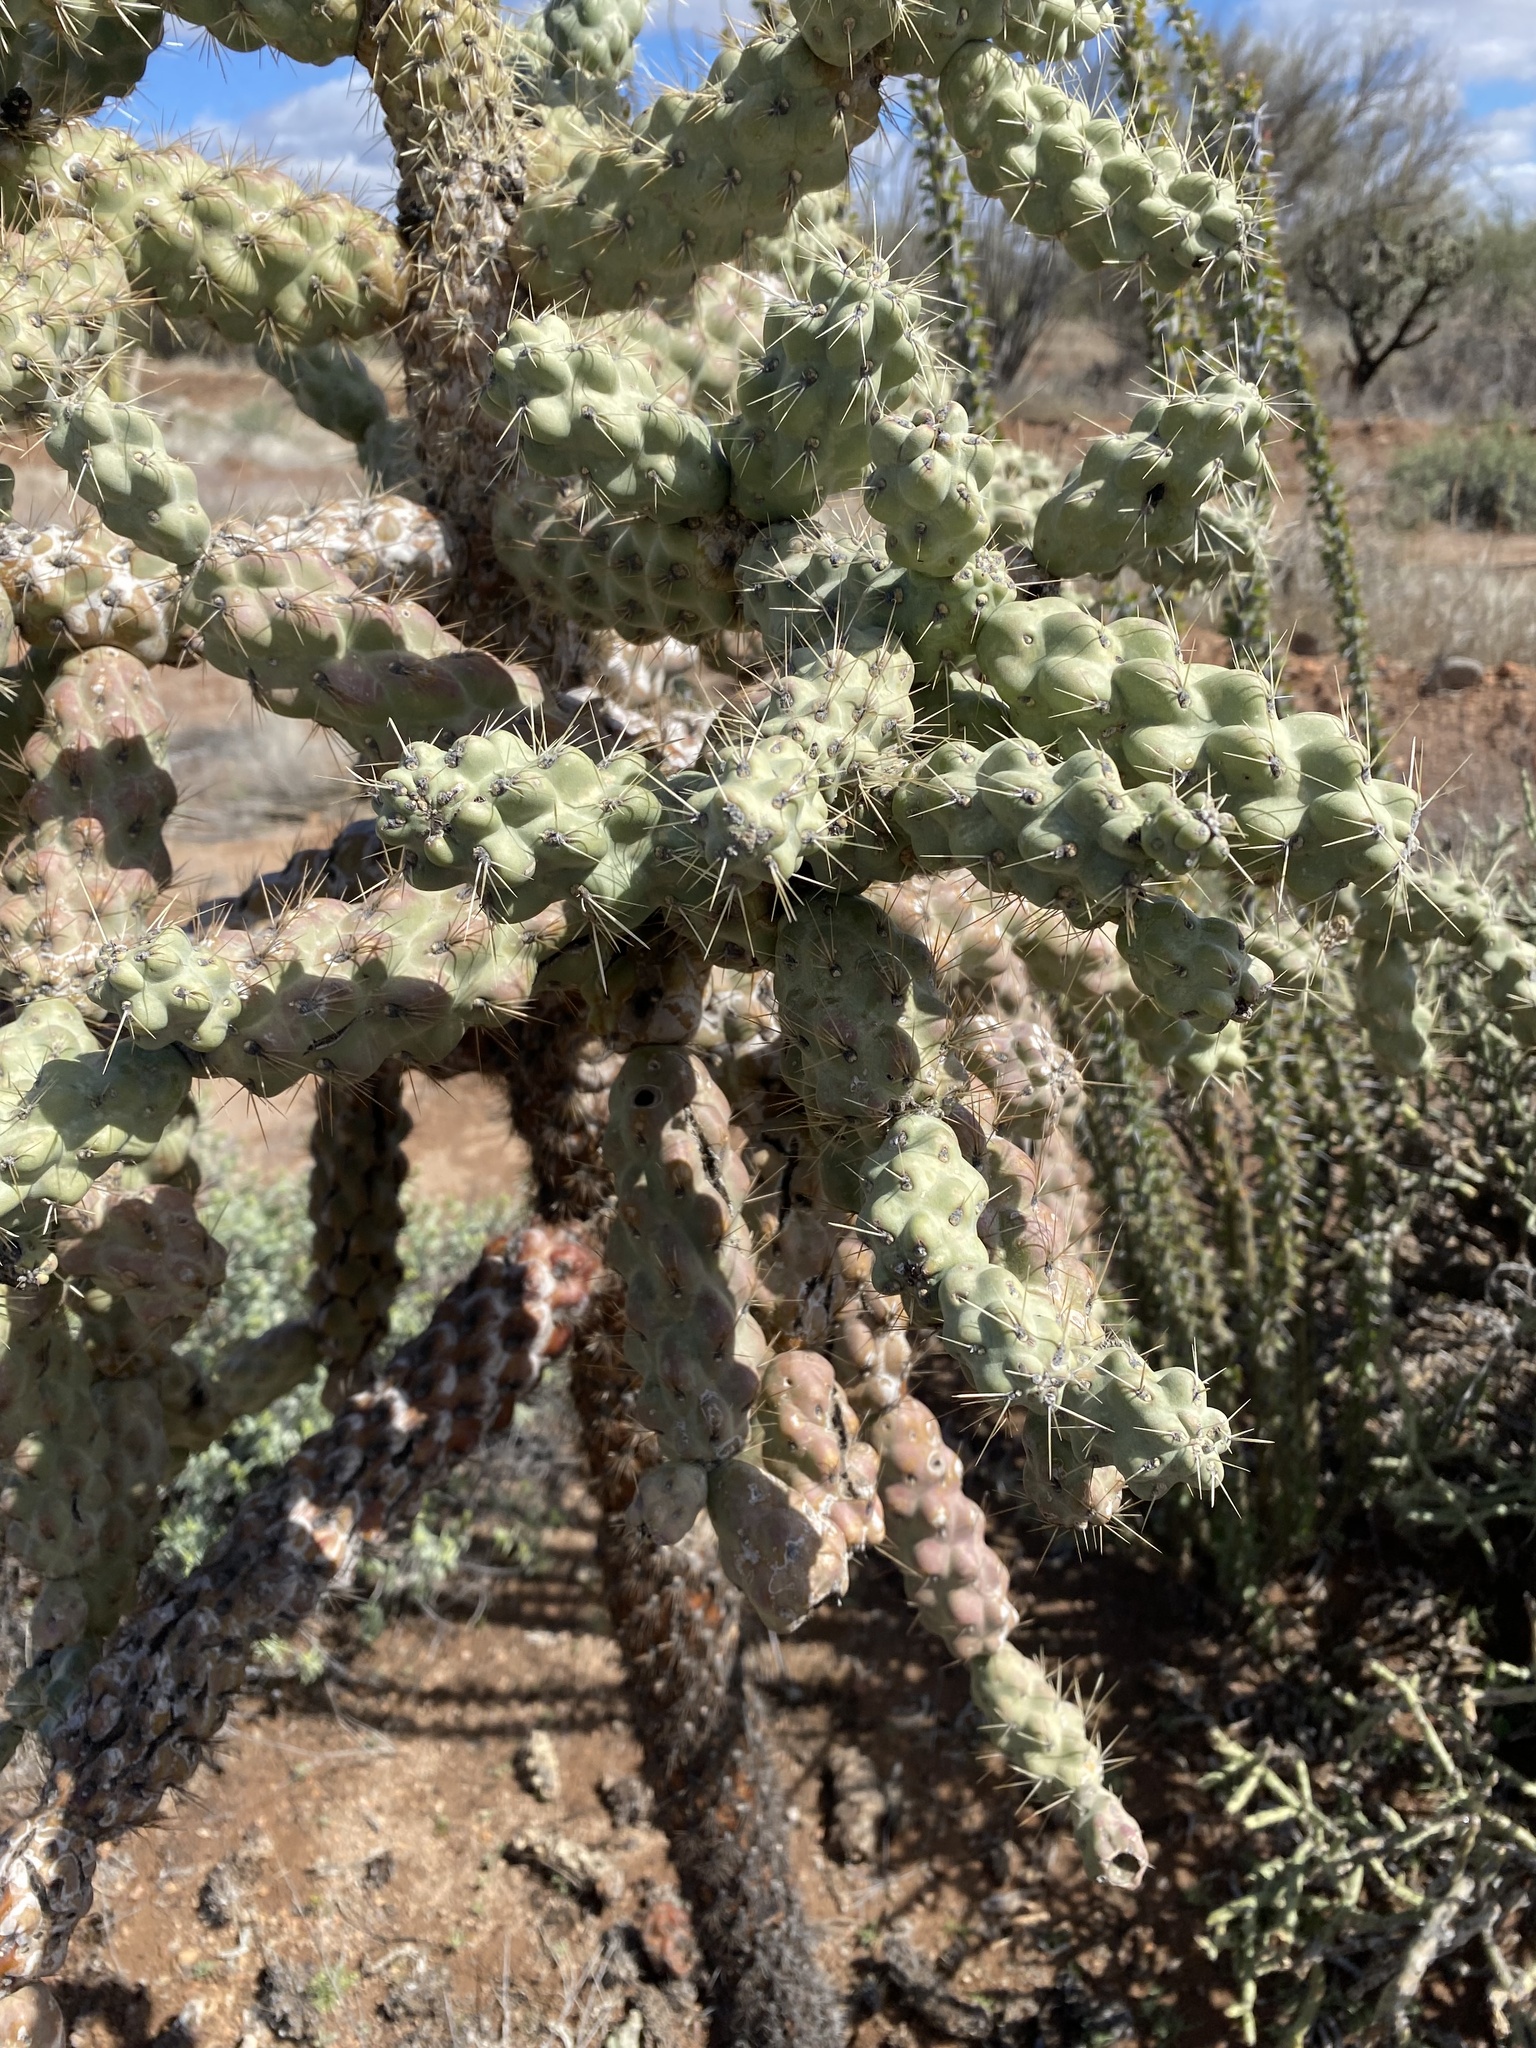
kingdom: Plantae
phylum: Tracheophyta
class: Magnoliopsida
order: Caryophyllales
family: Cactaceae
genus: Cylindropuntia
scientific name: Cylindropuntia fulgida
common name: Jumping cholla
